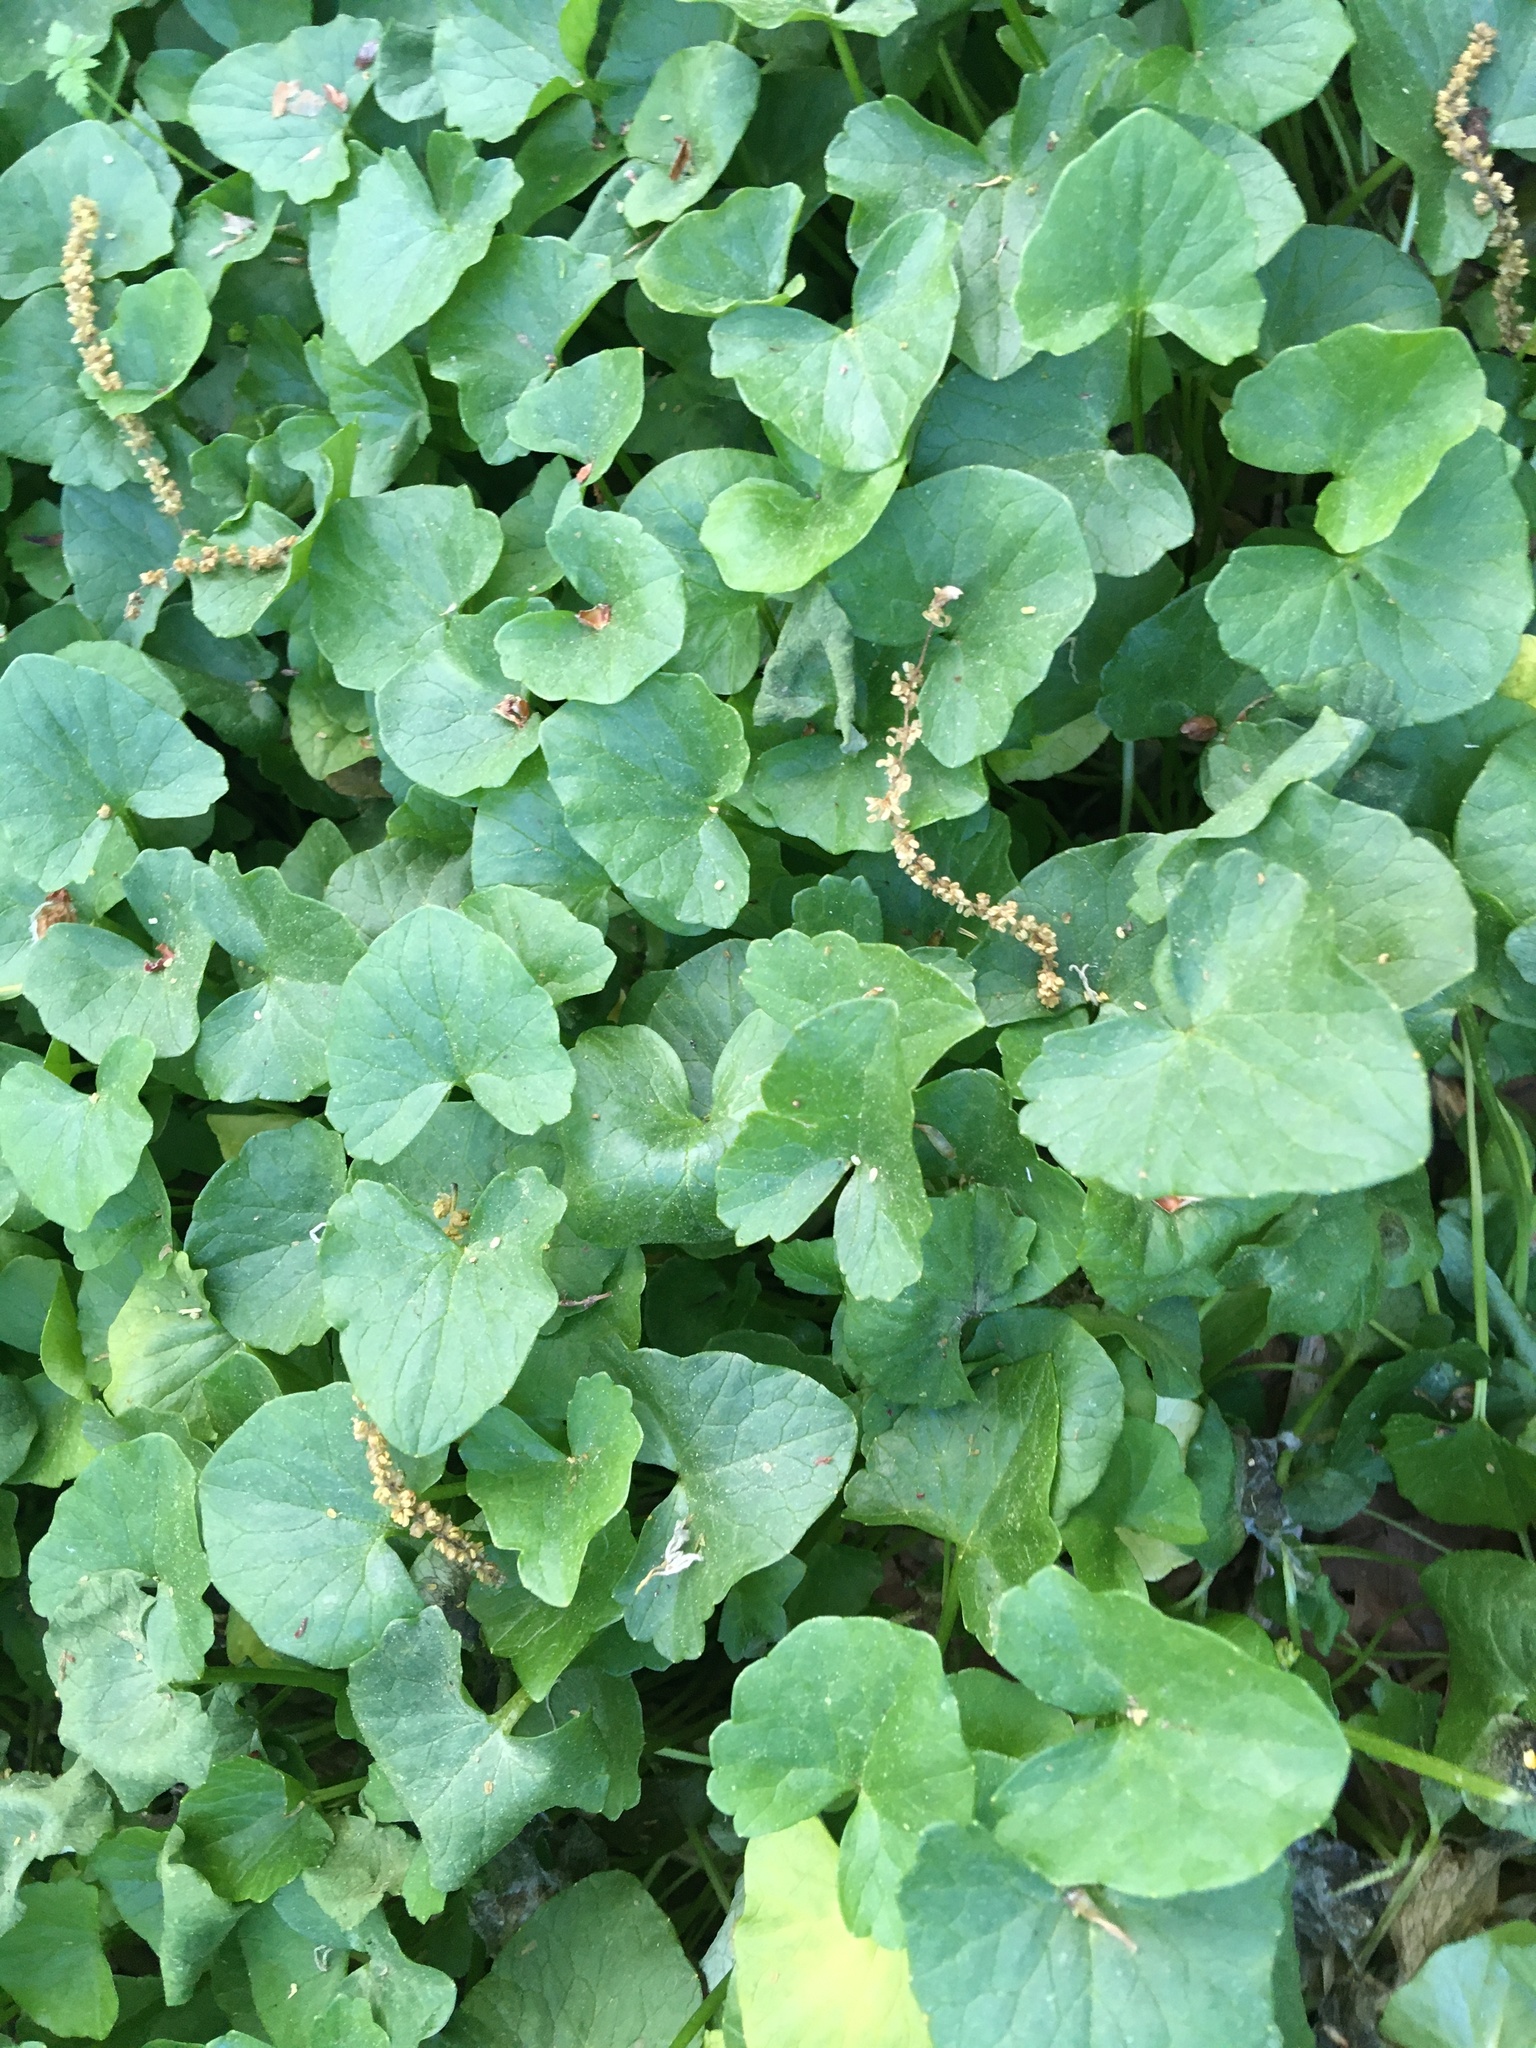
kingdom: Plantae
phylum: Tracheophyta
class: Magnoliopsida
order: Ranunculales
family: Ranunculaceae
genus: Ficaria
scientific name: Ficaria verna
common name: Lesser celandine
